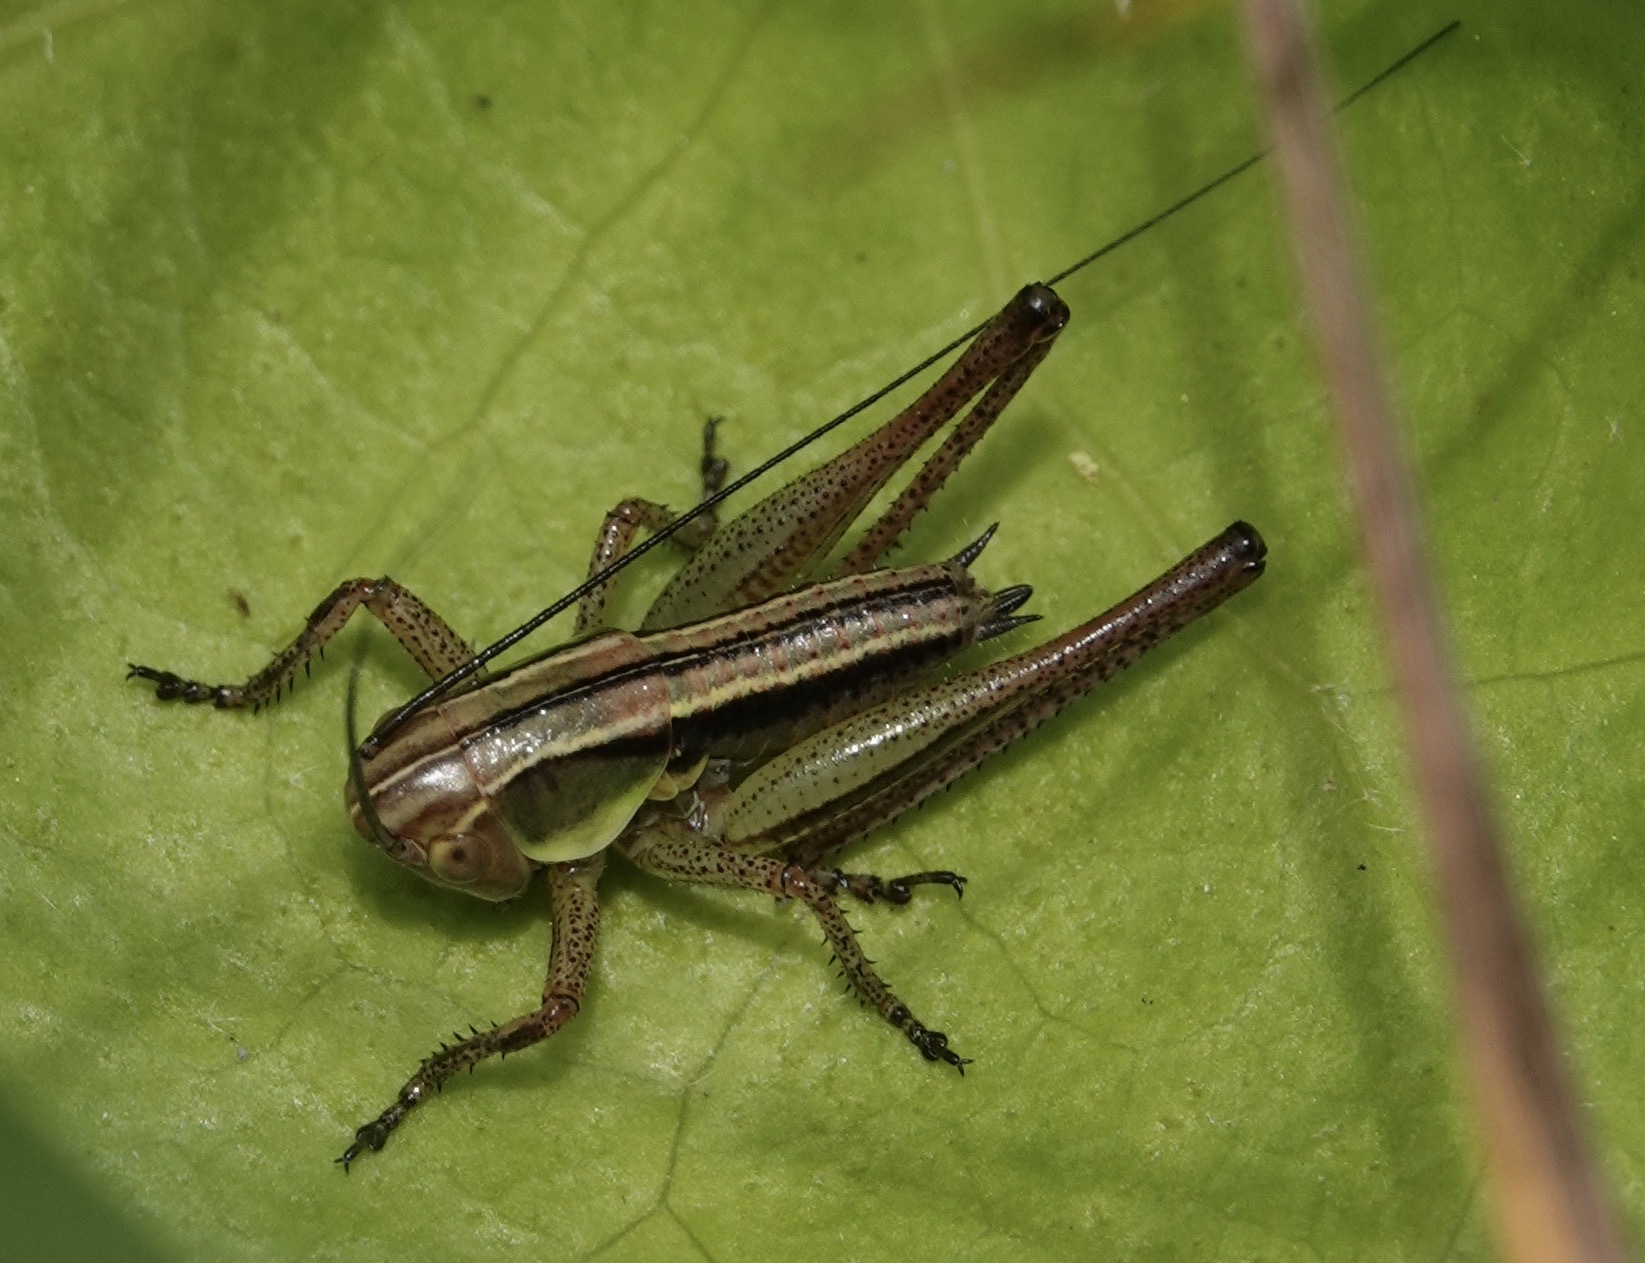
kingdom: Animalia
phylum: Arthropoda
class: Insecta
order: Orthoptera
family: Tettigoniidae
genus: Roeseliana
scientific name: Roeseliana roeselii
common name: Roesel's bush cricket
